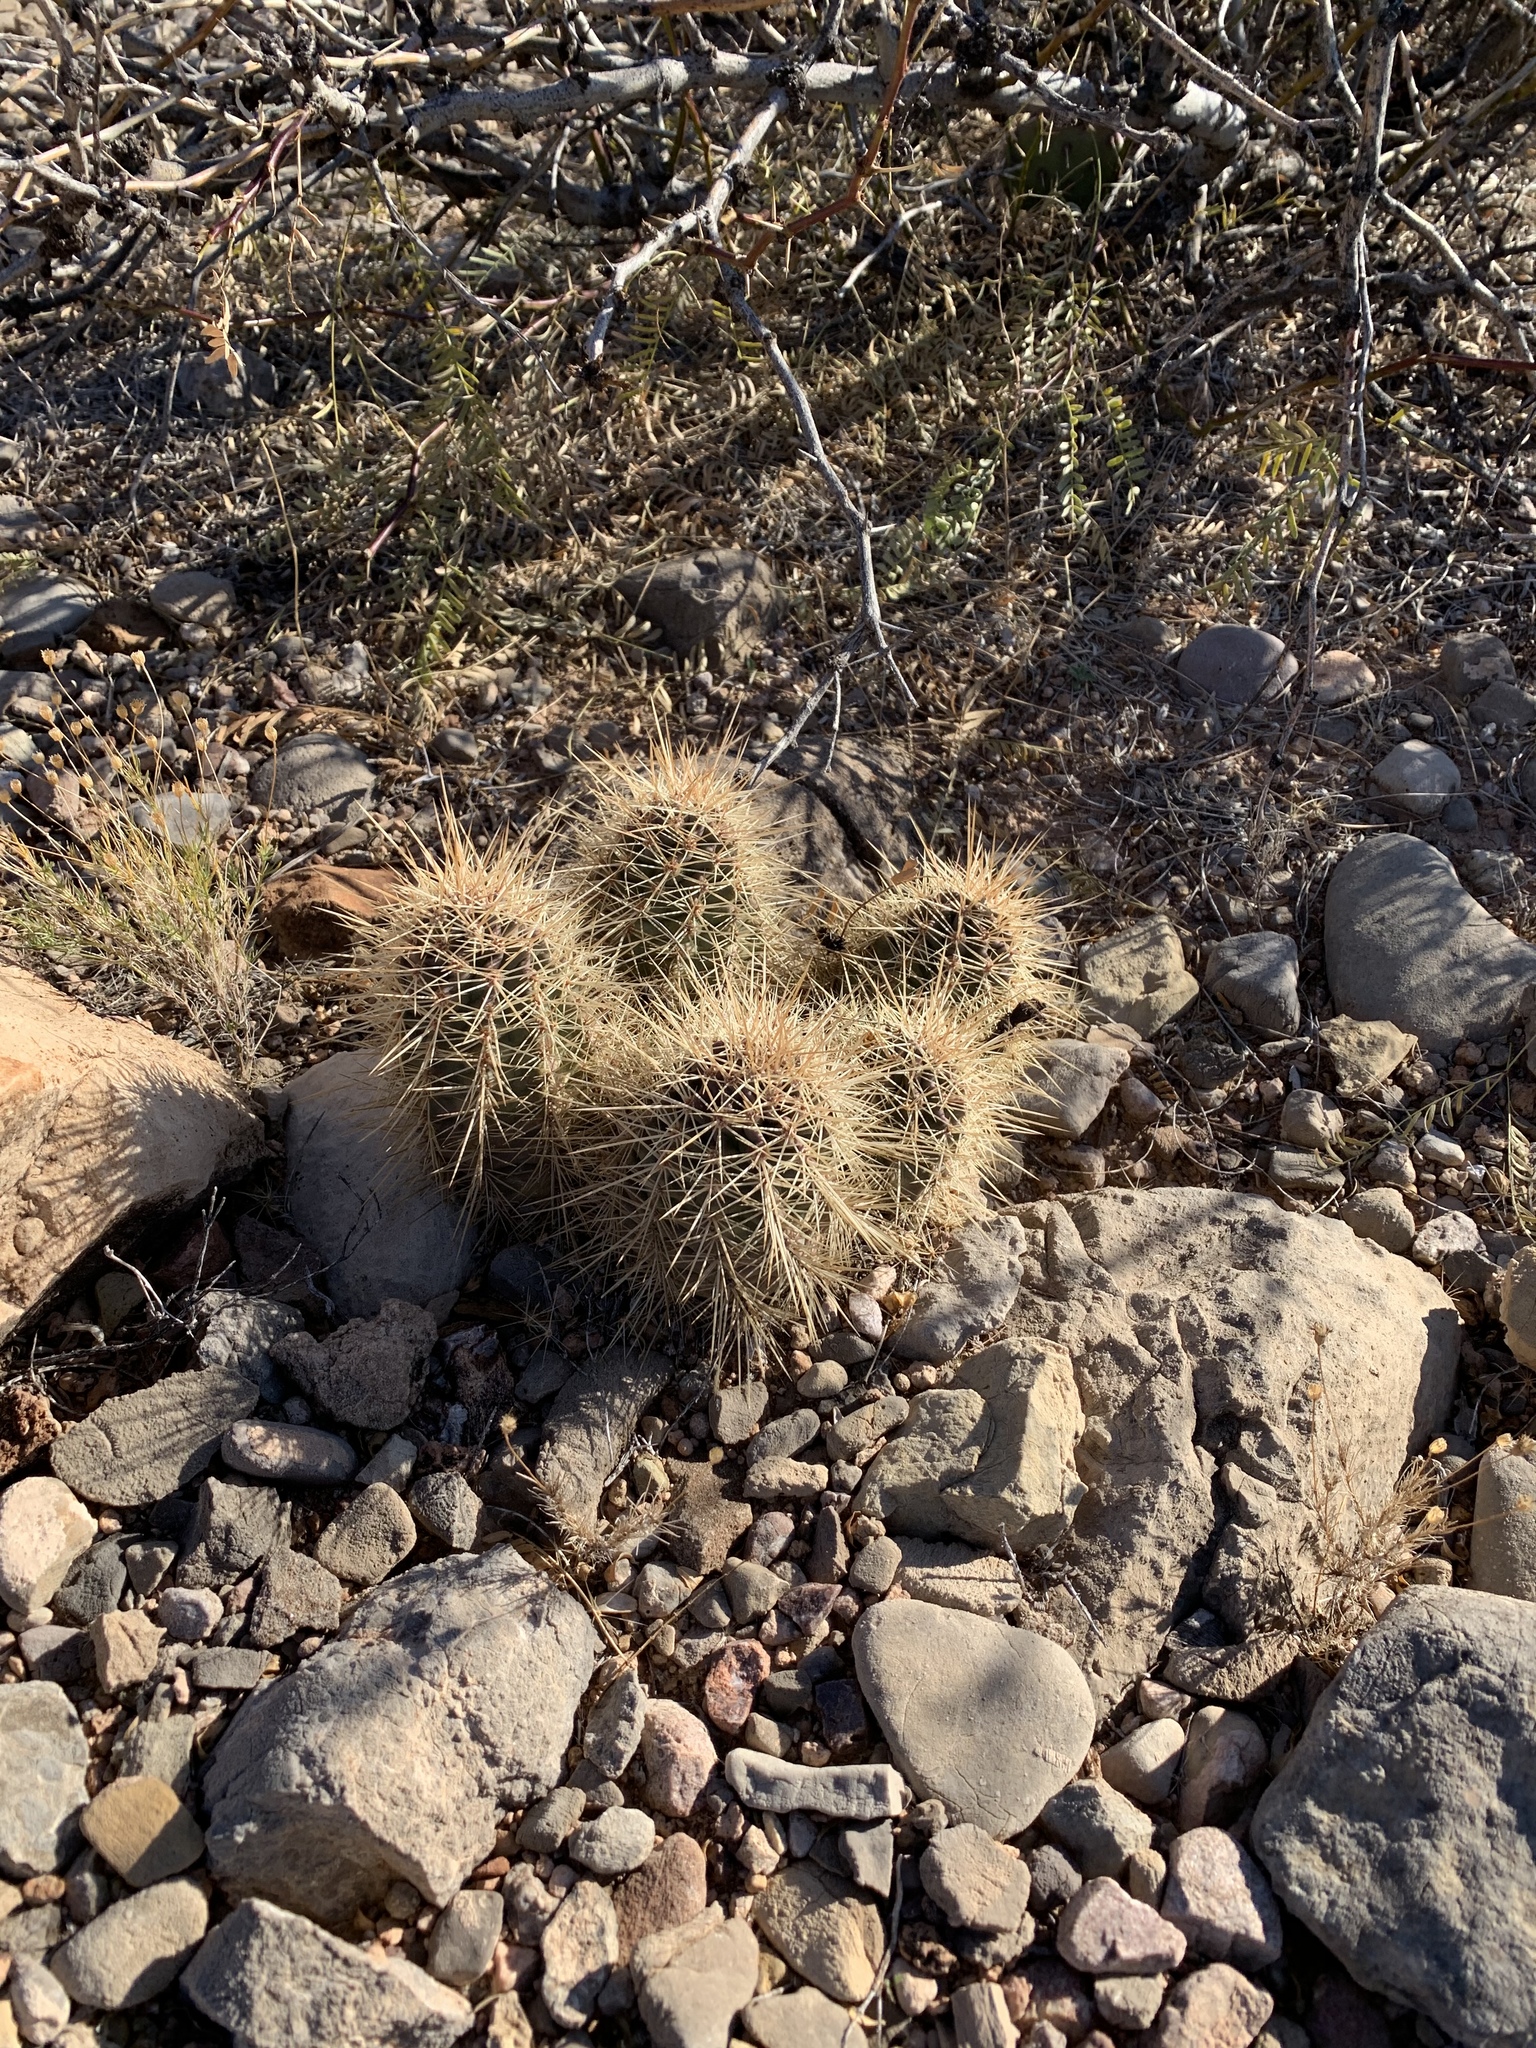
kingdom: Plantae
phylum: Tracheophyta
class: Magnoliopsida
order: Caryophyllales
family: Cactaceae
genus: Echinocereus
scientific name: Echinocereus coccineus
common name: Scarlet hedgehog cactus
